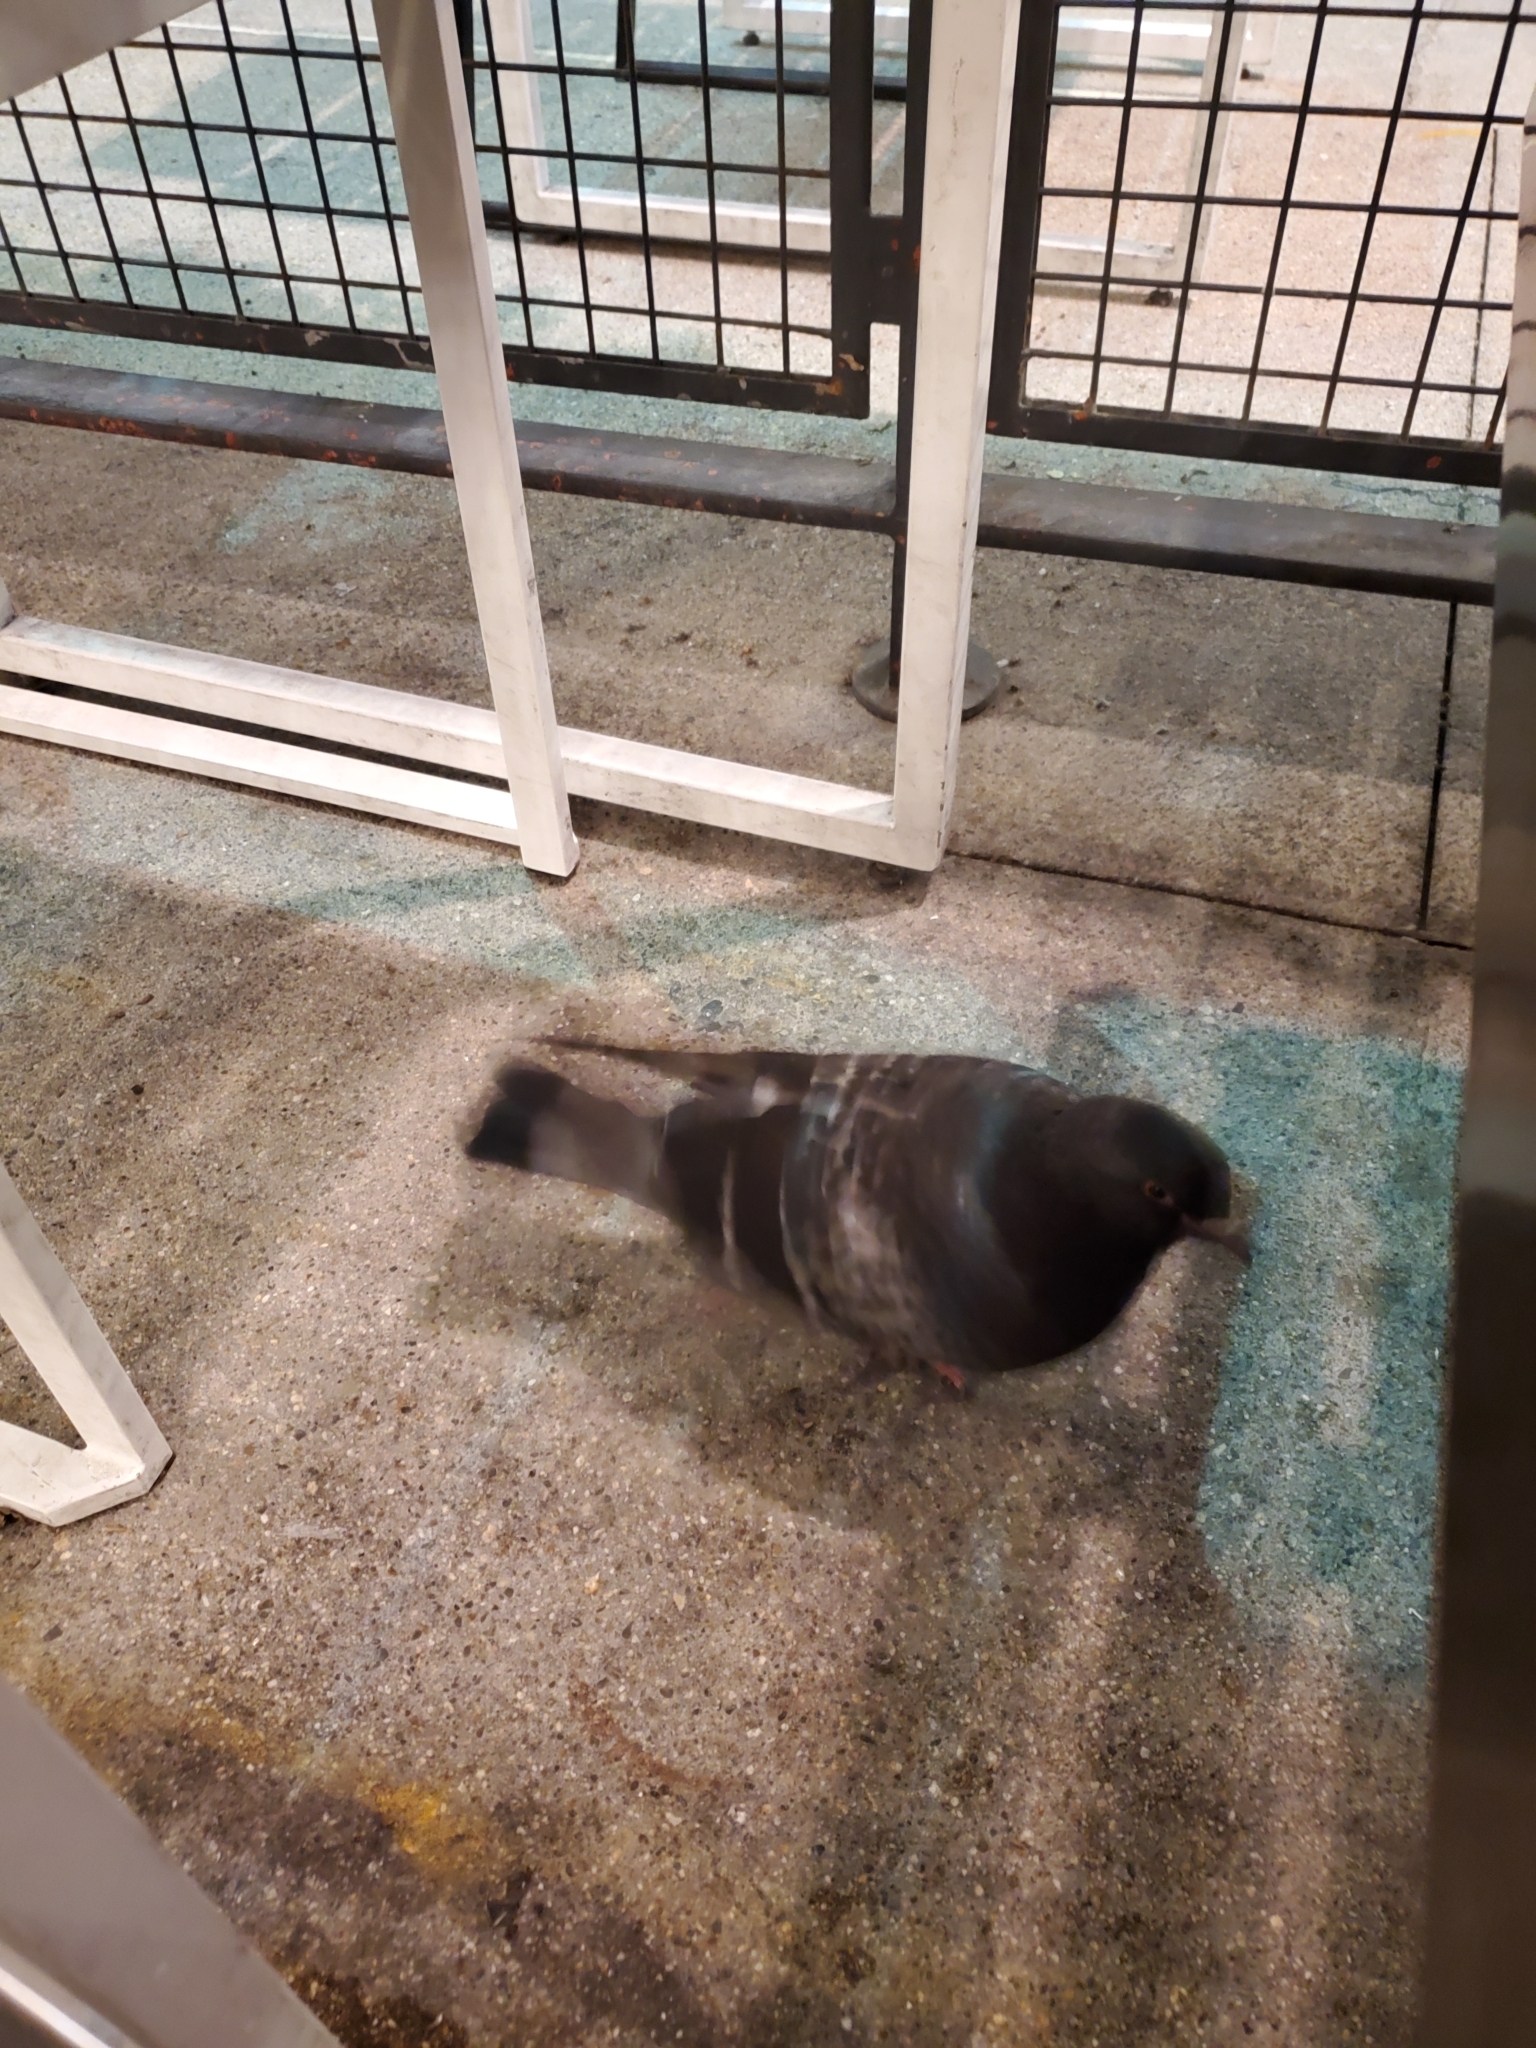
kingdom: Animalia
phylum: Chordata
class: Aves
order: Columbiformes
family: Columbidae
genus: Columba
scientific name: Columba livia
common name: Rock pigeon
